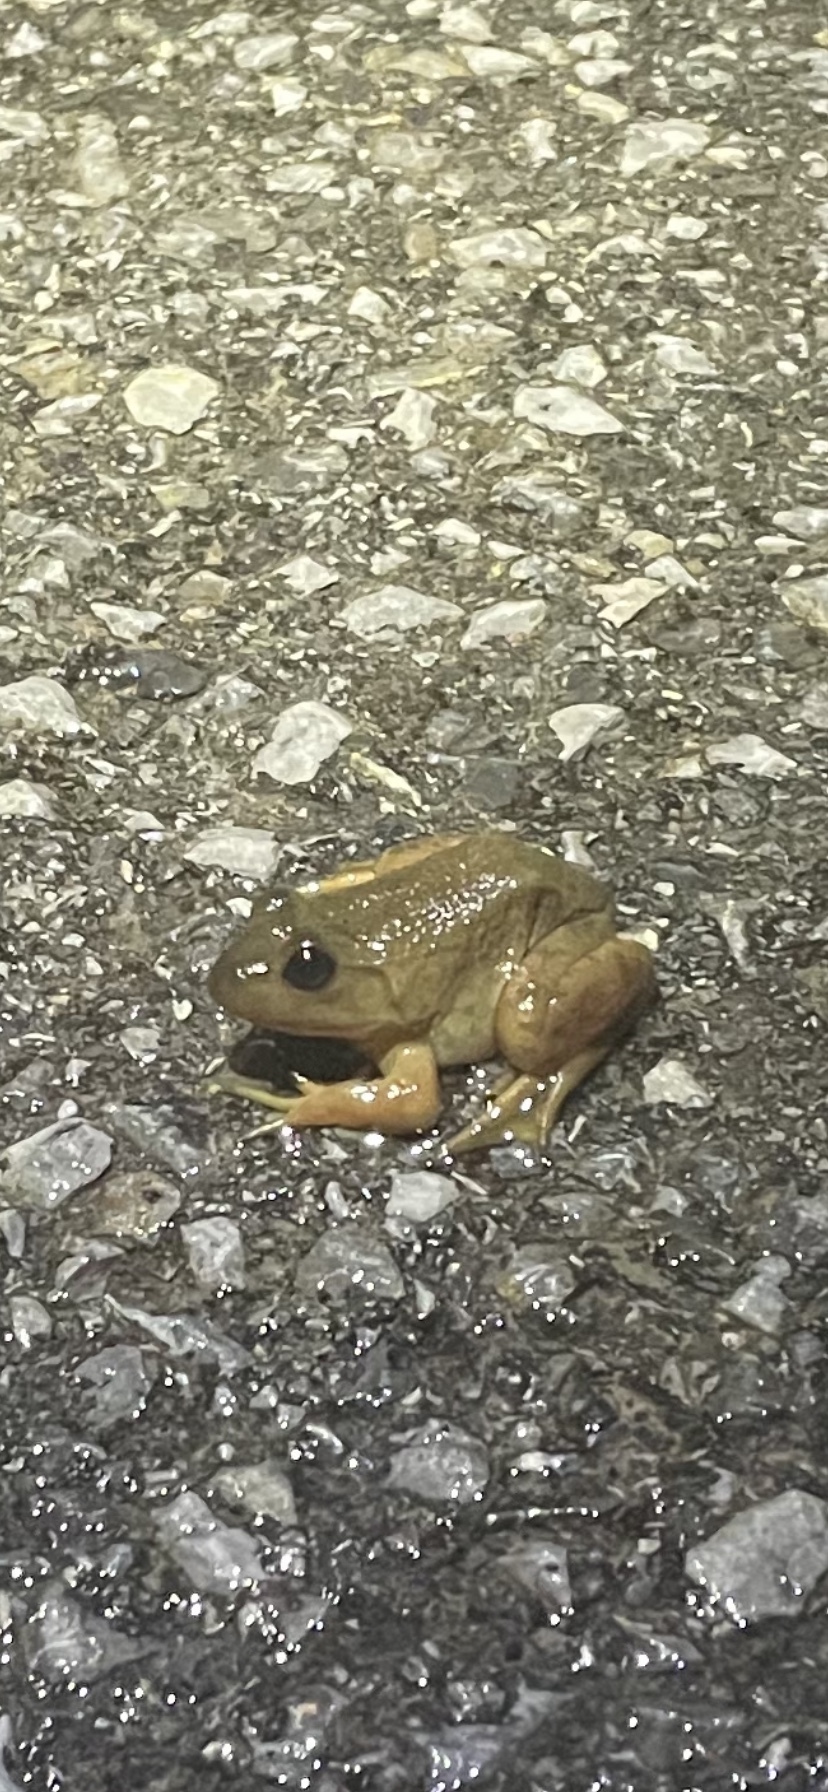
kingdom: Animalia
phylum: Chordata
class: Amphibia
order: Anura
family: Ranidae
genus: Lithobates
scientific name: Lithobates catesbeianus
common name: American bullfrog
